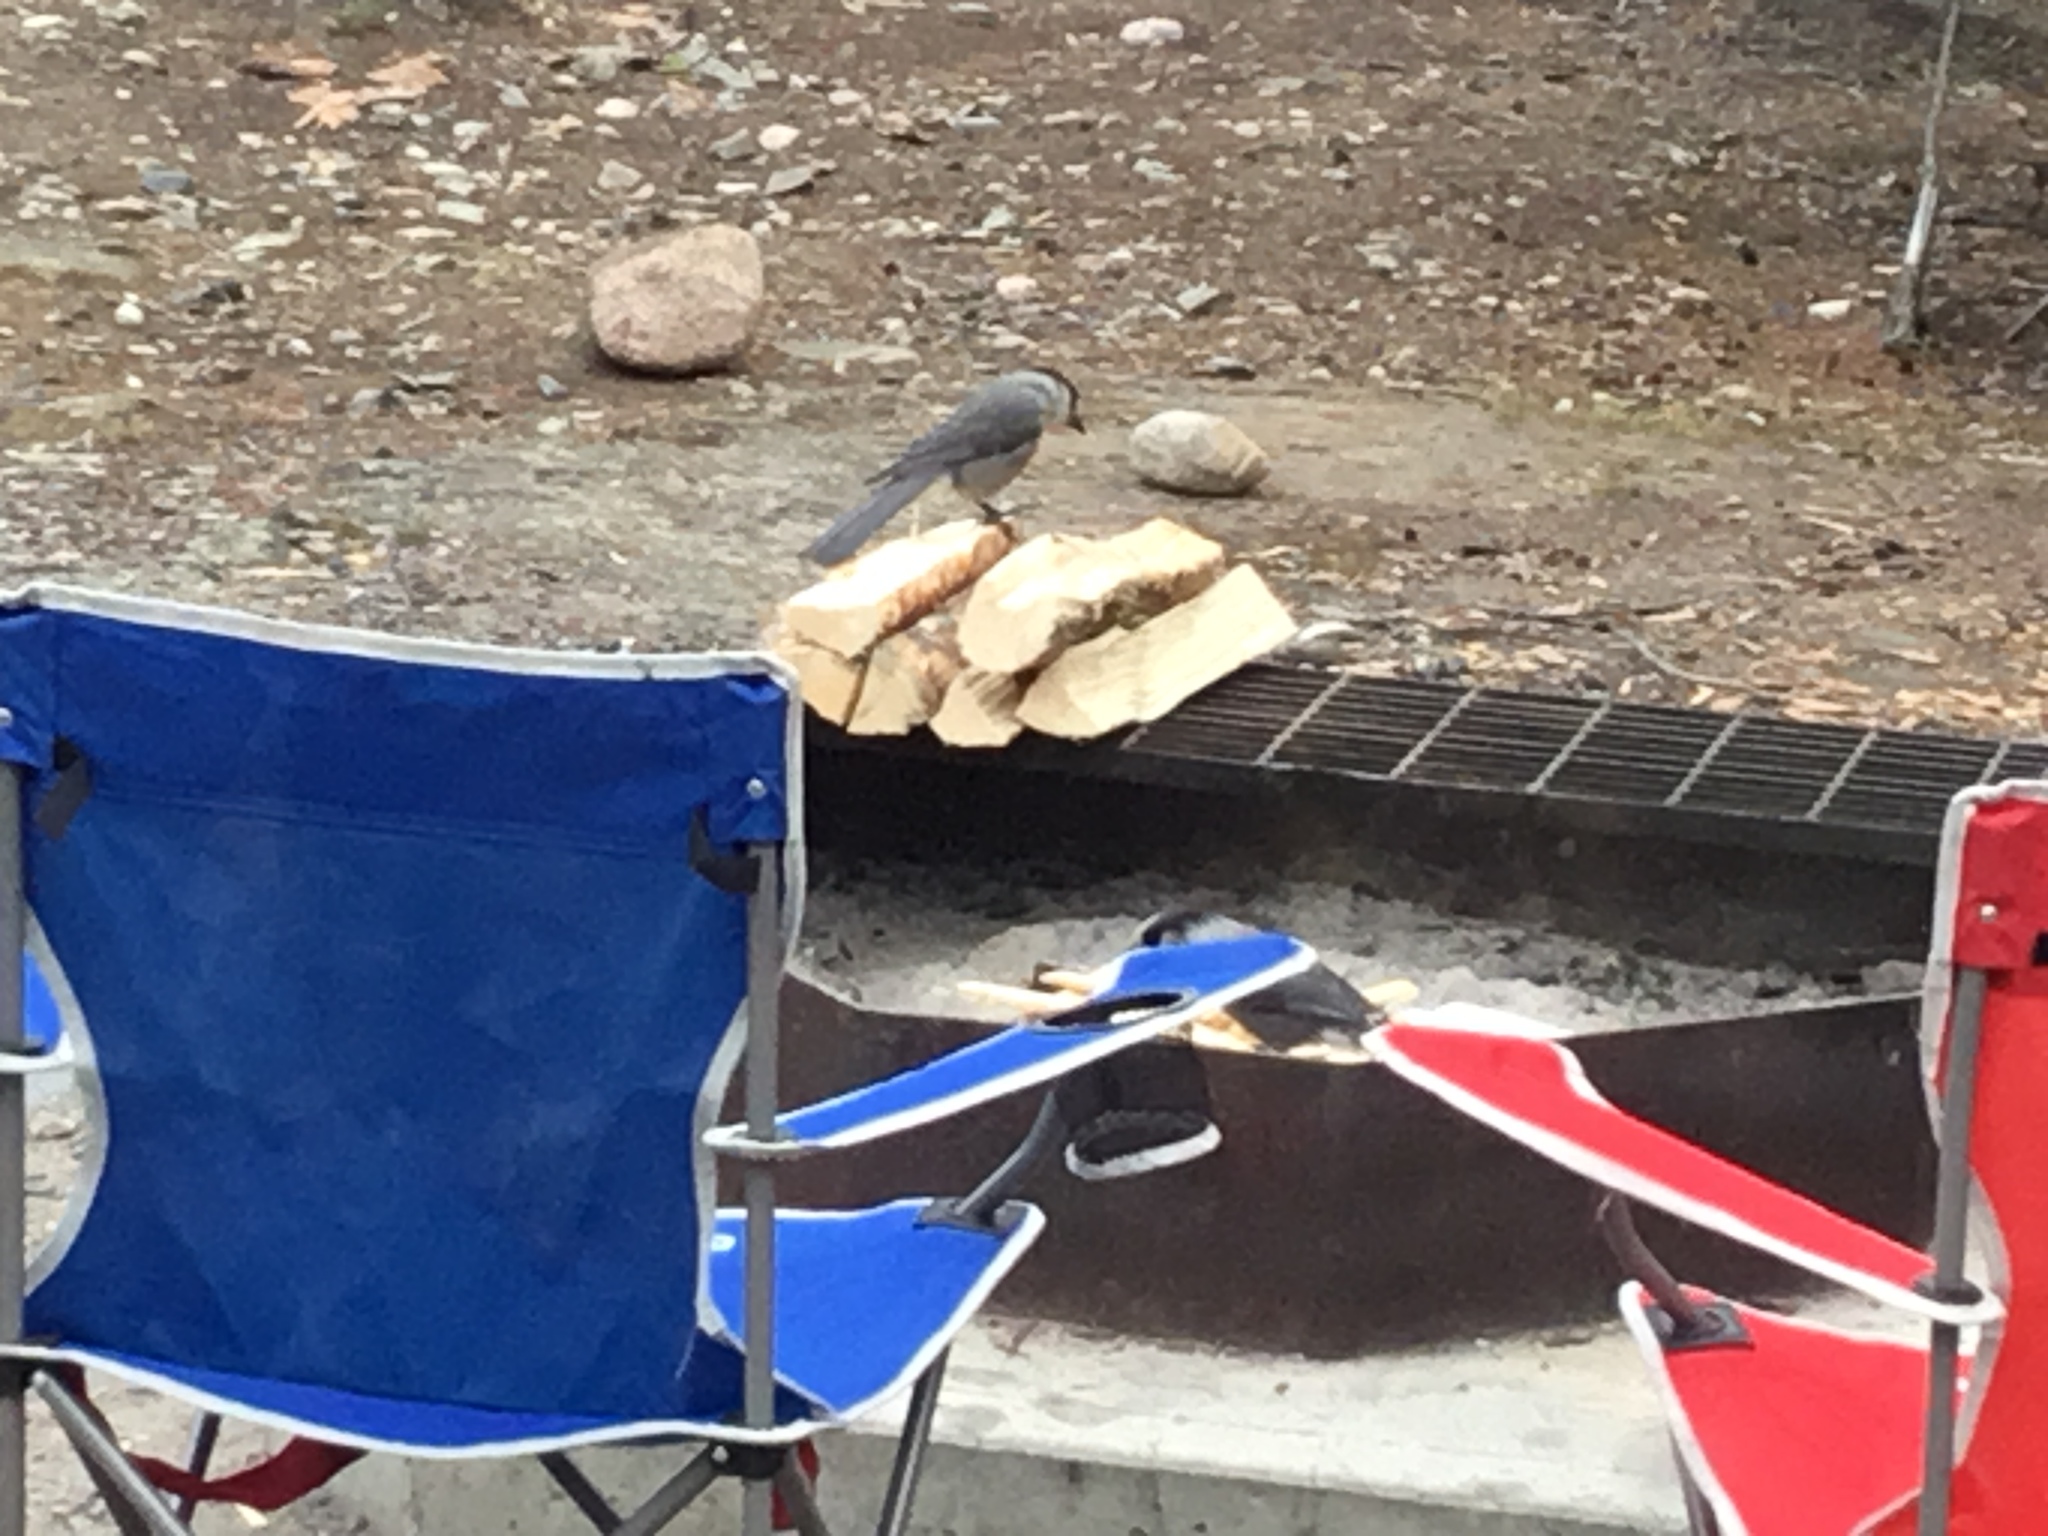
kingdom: Animalia
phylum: Chordata
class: Aves
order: Passeriformes
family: Corvidae
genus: Perisoreus
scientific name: Perisoreus canadensis
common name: Gray jay
